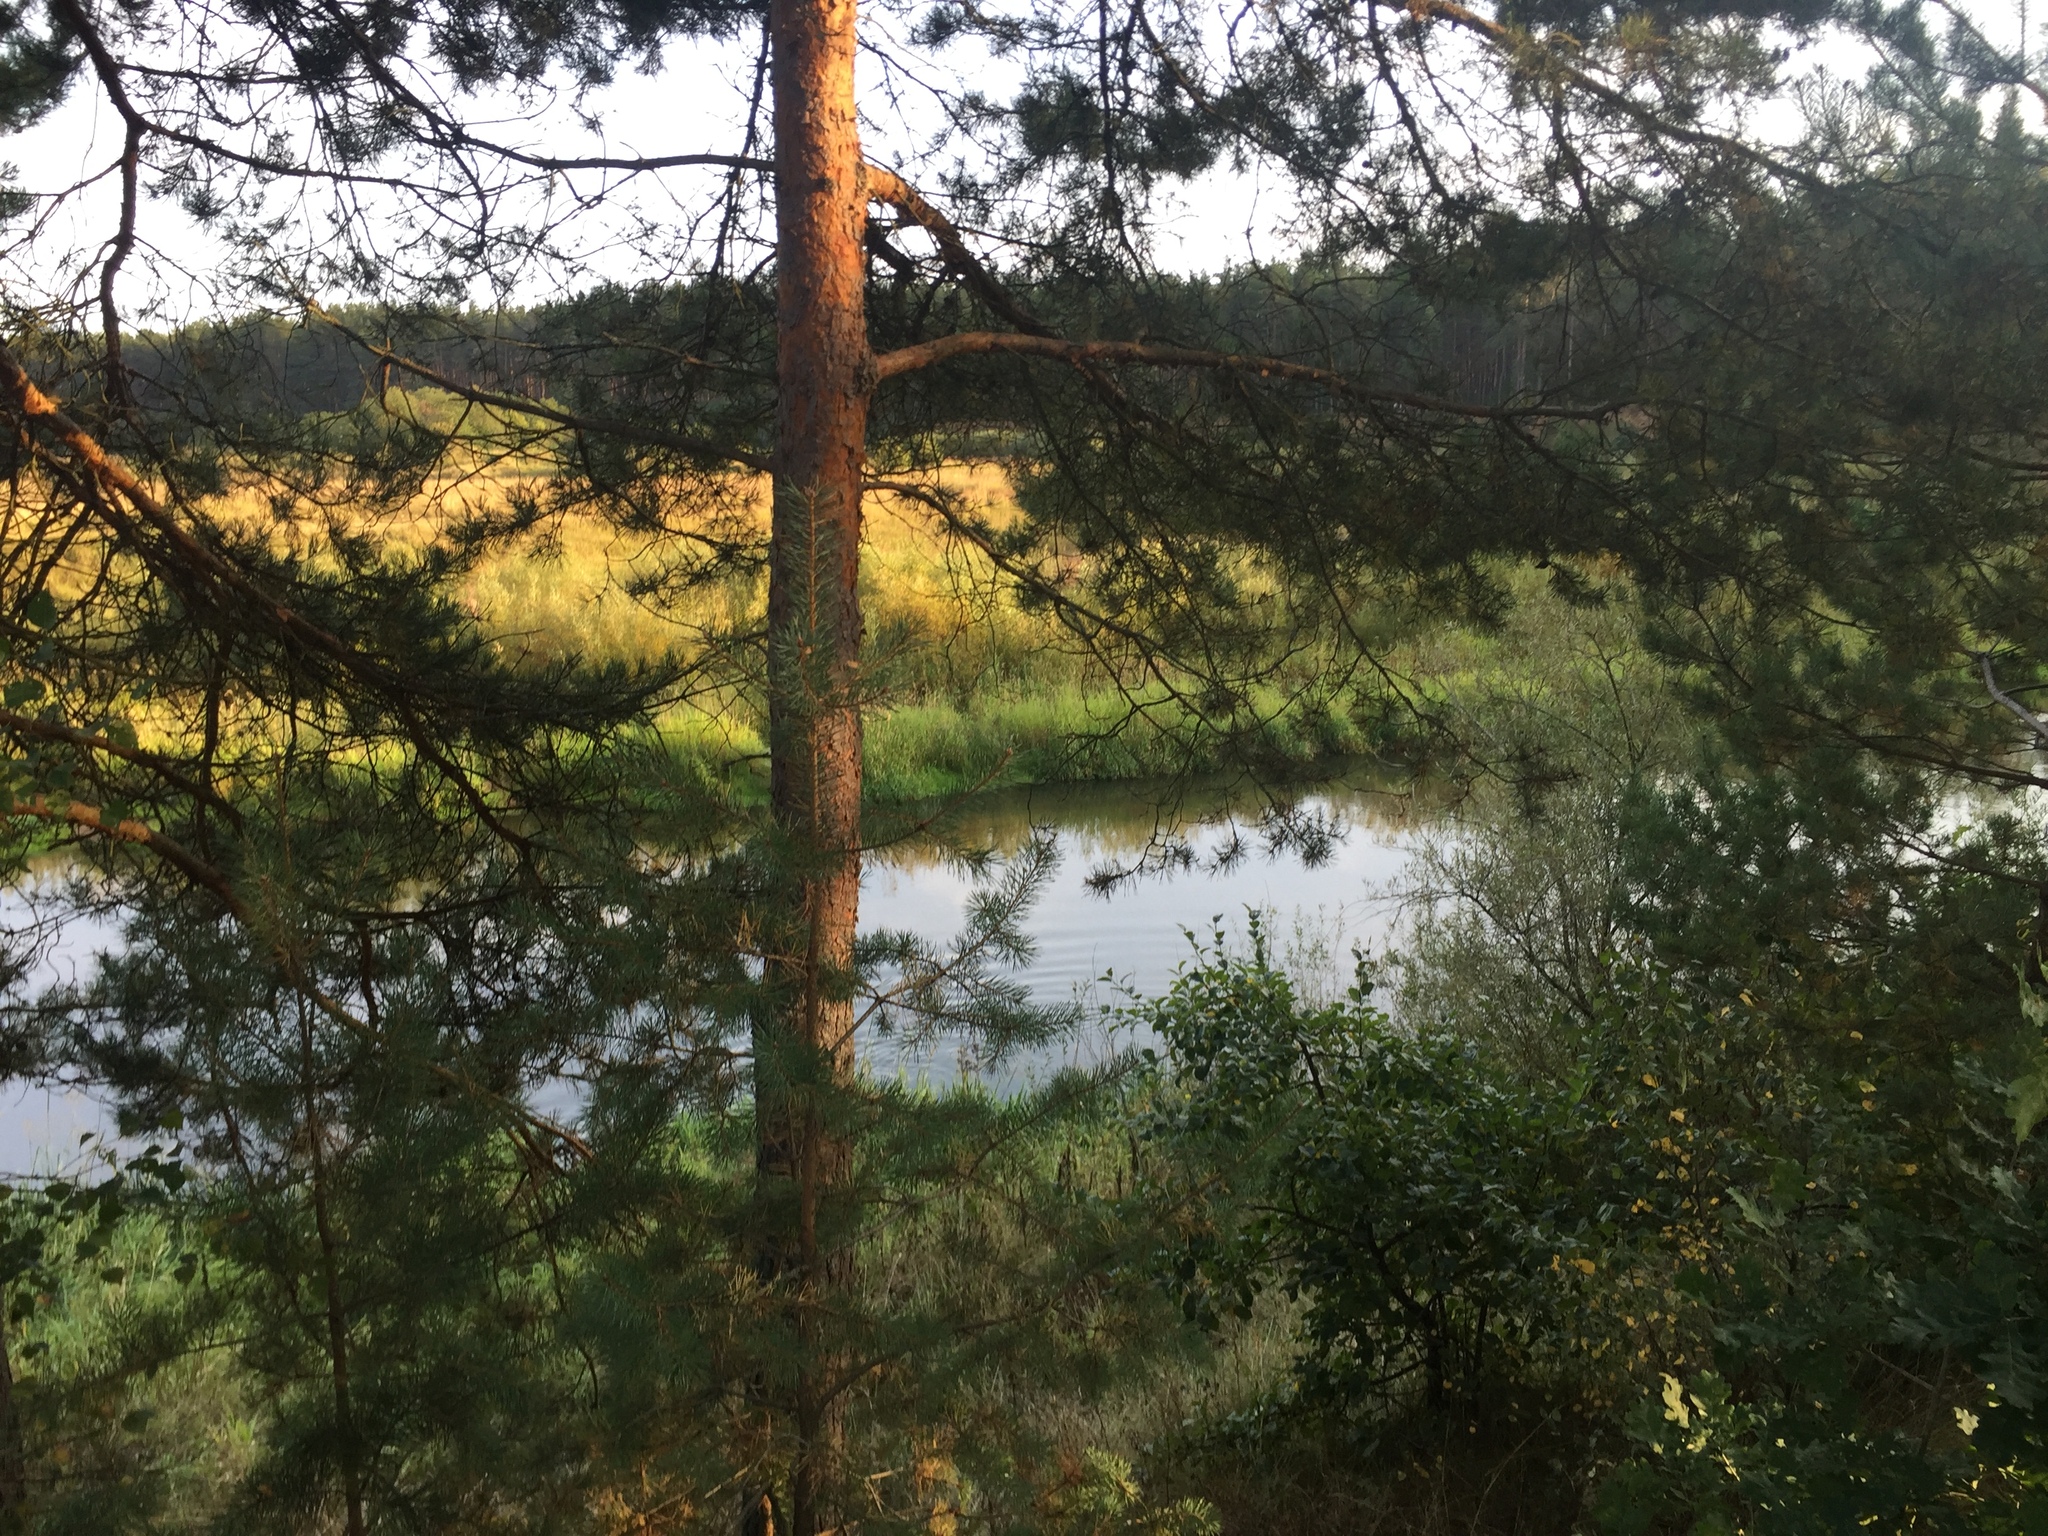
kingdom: Plantae
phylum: Tracheophyta
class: Pinopsida
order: Pinales
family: Pinaceae
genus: Pinus
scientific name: Pinus sylvestris
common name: Scots pine
